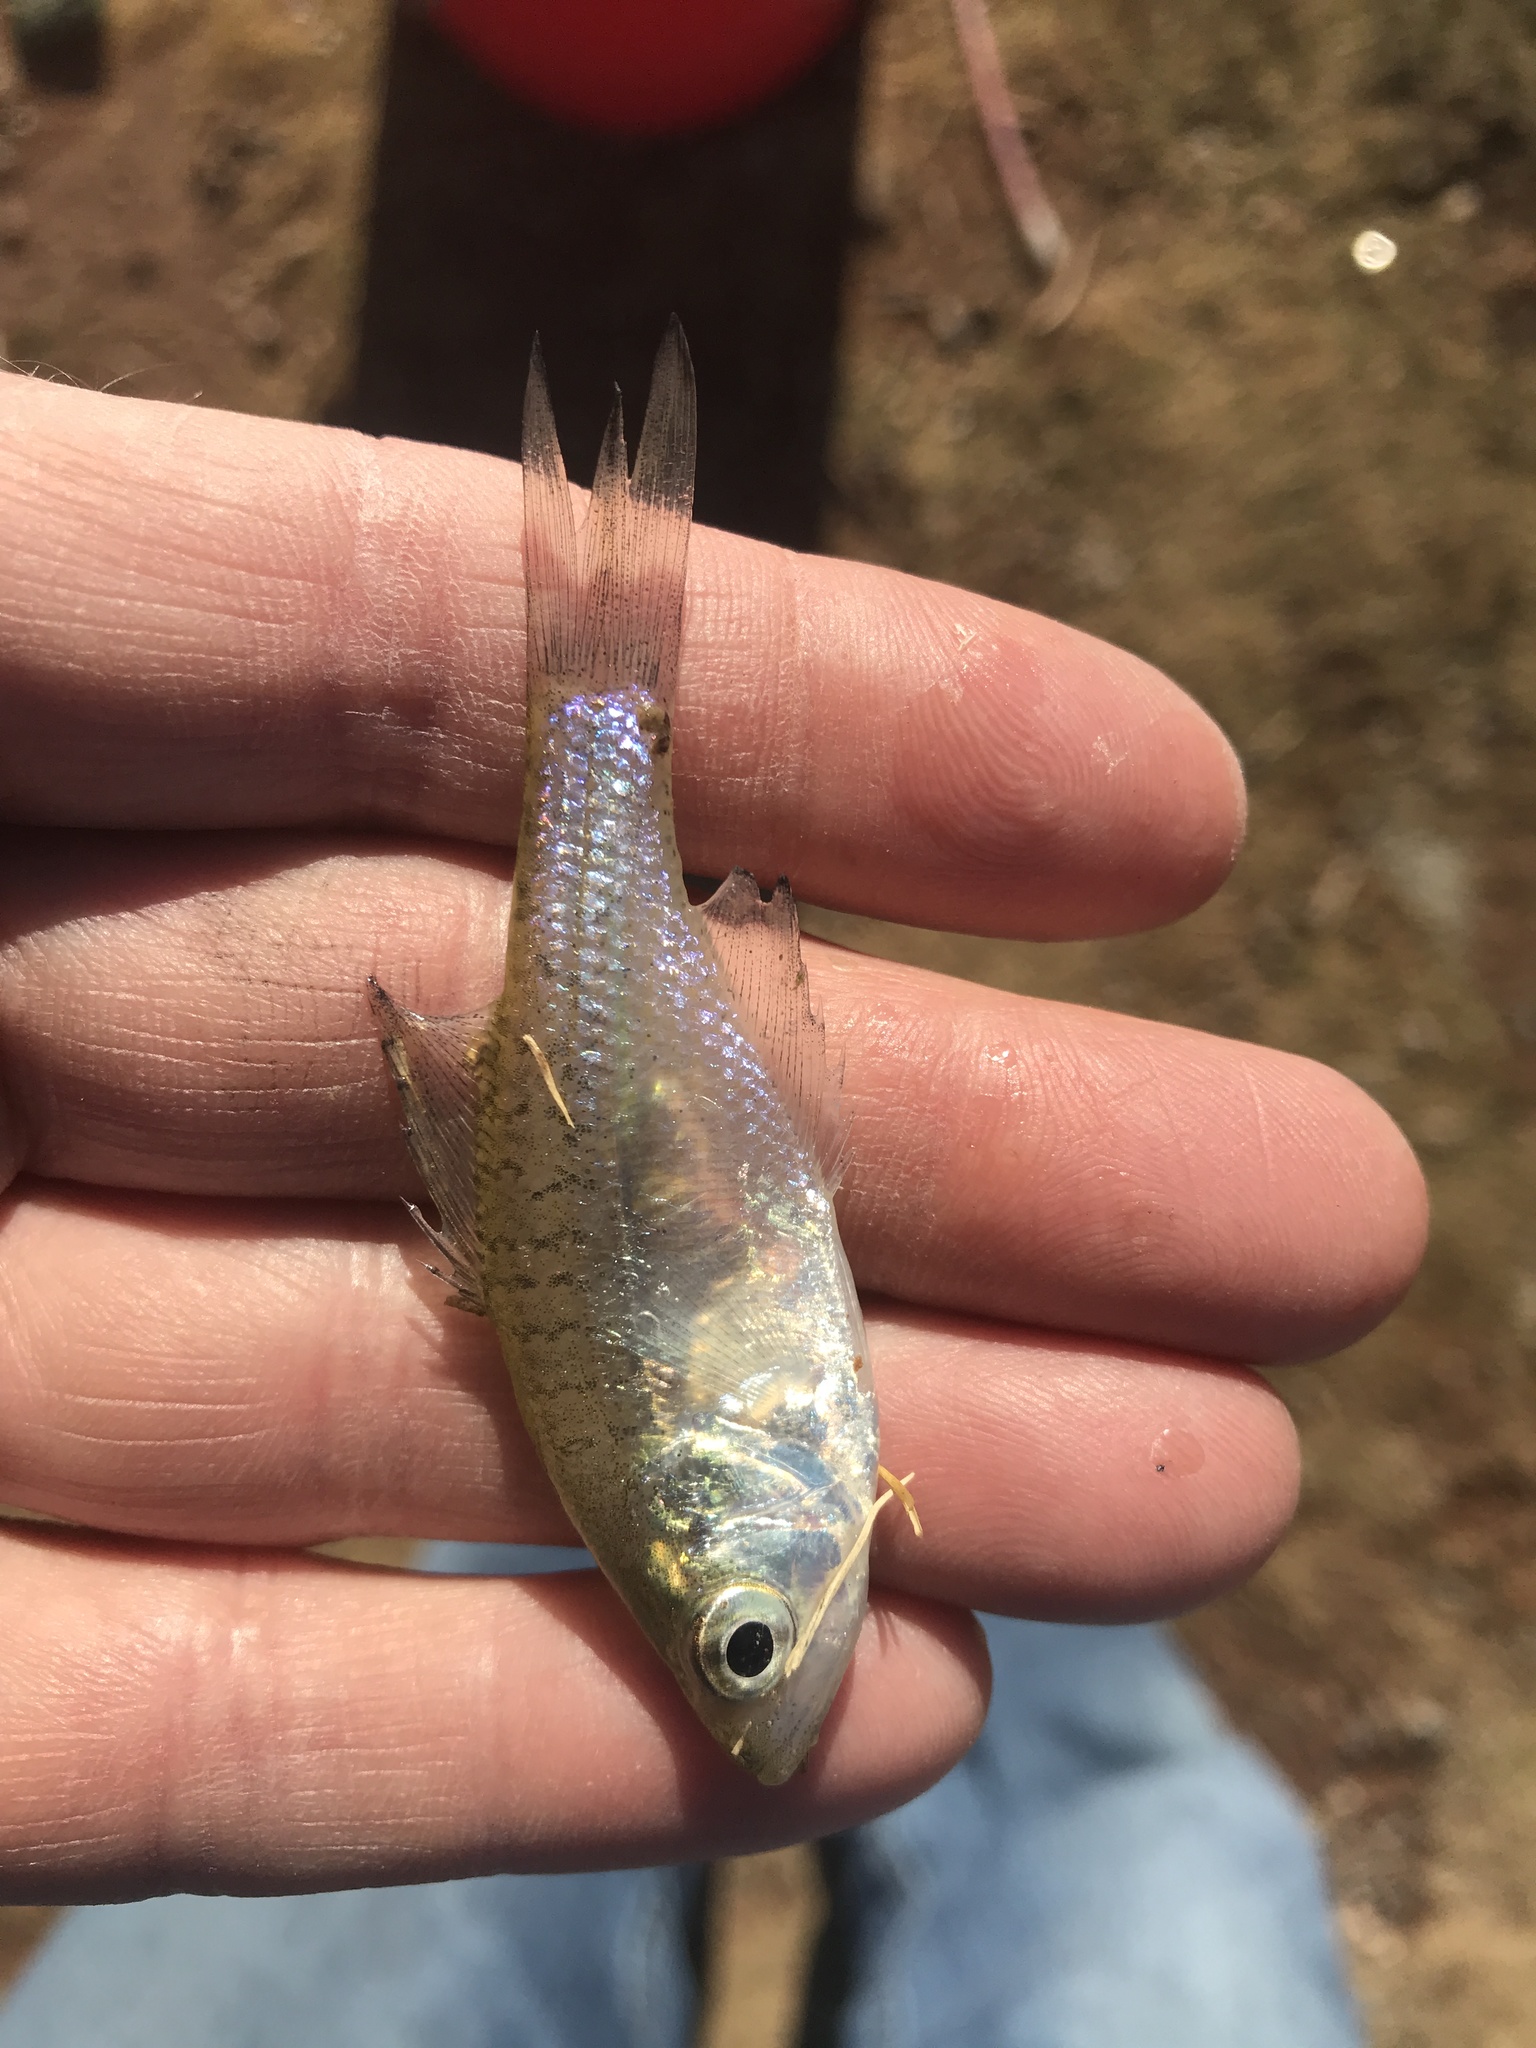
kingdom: Animalia
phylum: Chordata
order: Perciformes
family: Centrarchidae
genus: Pomoxis
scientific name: Pomoxis annularis
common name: White crappie
